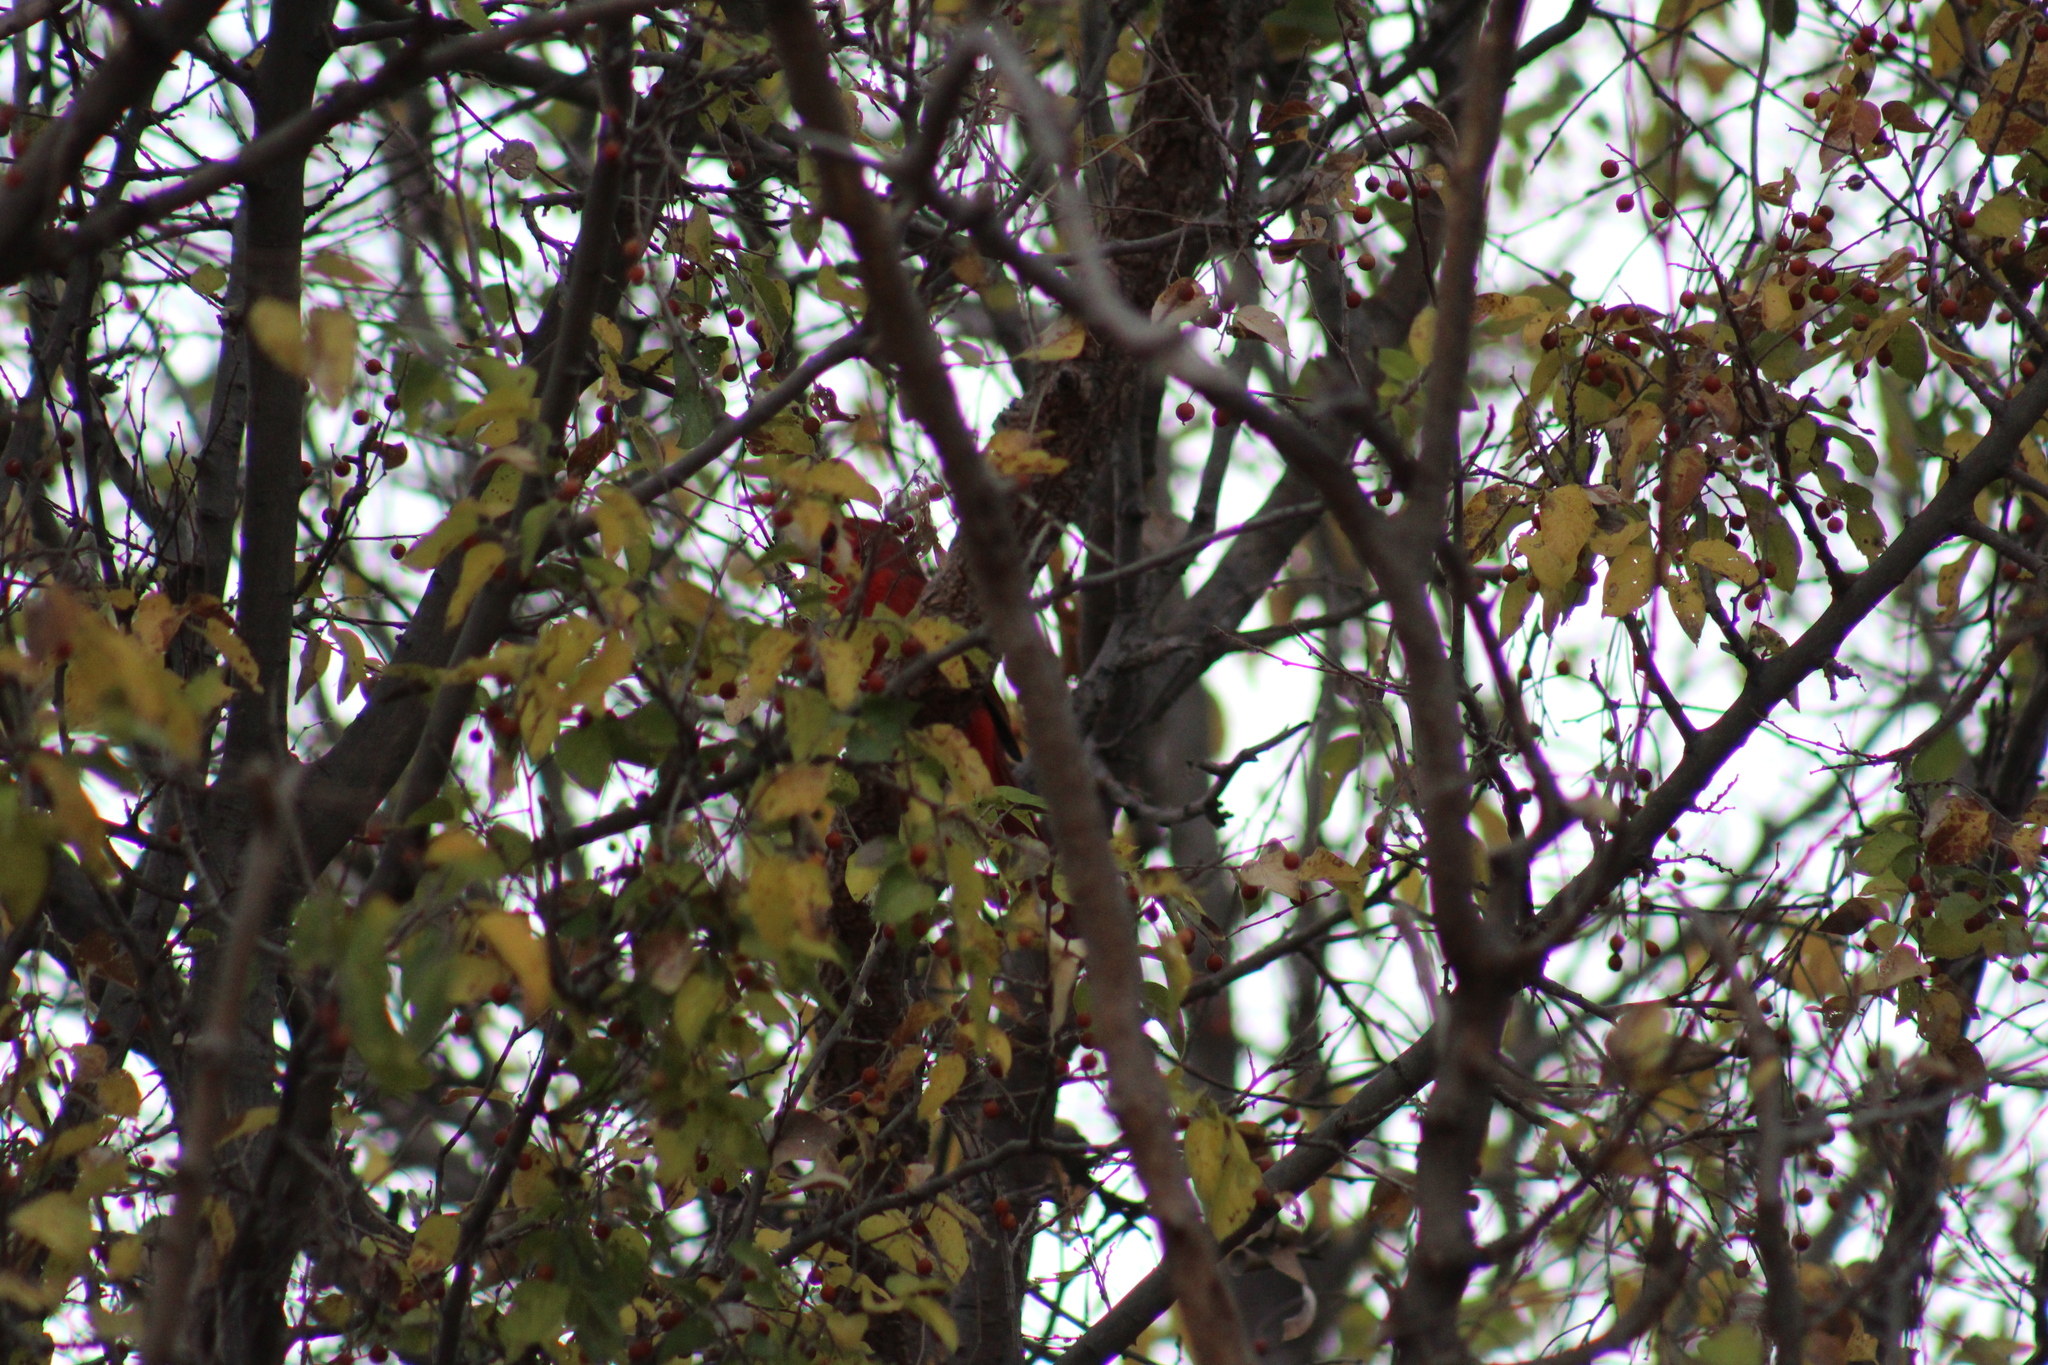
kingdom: Animalia
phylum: Chordata
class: Aves
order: Passeriformes
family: Cardinalidae
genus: Cardinalis
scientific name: Cardinalis cardinalis
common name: Northern cardinal
